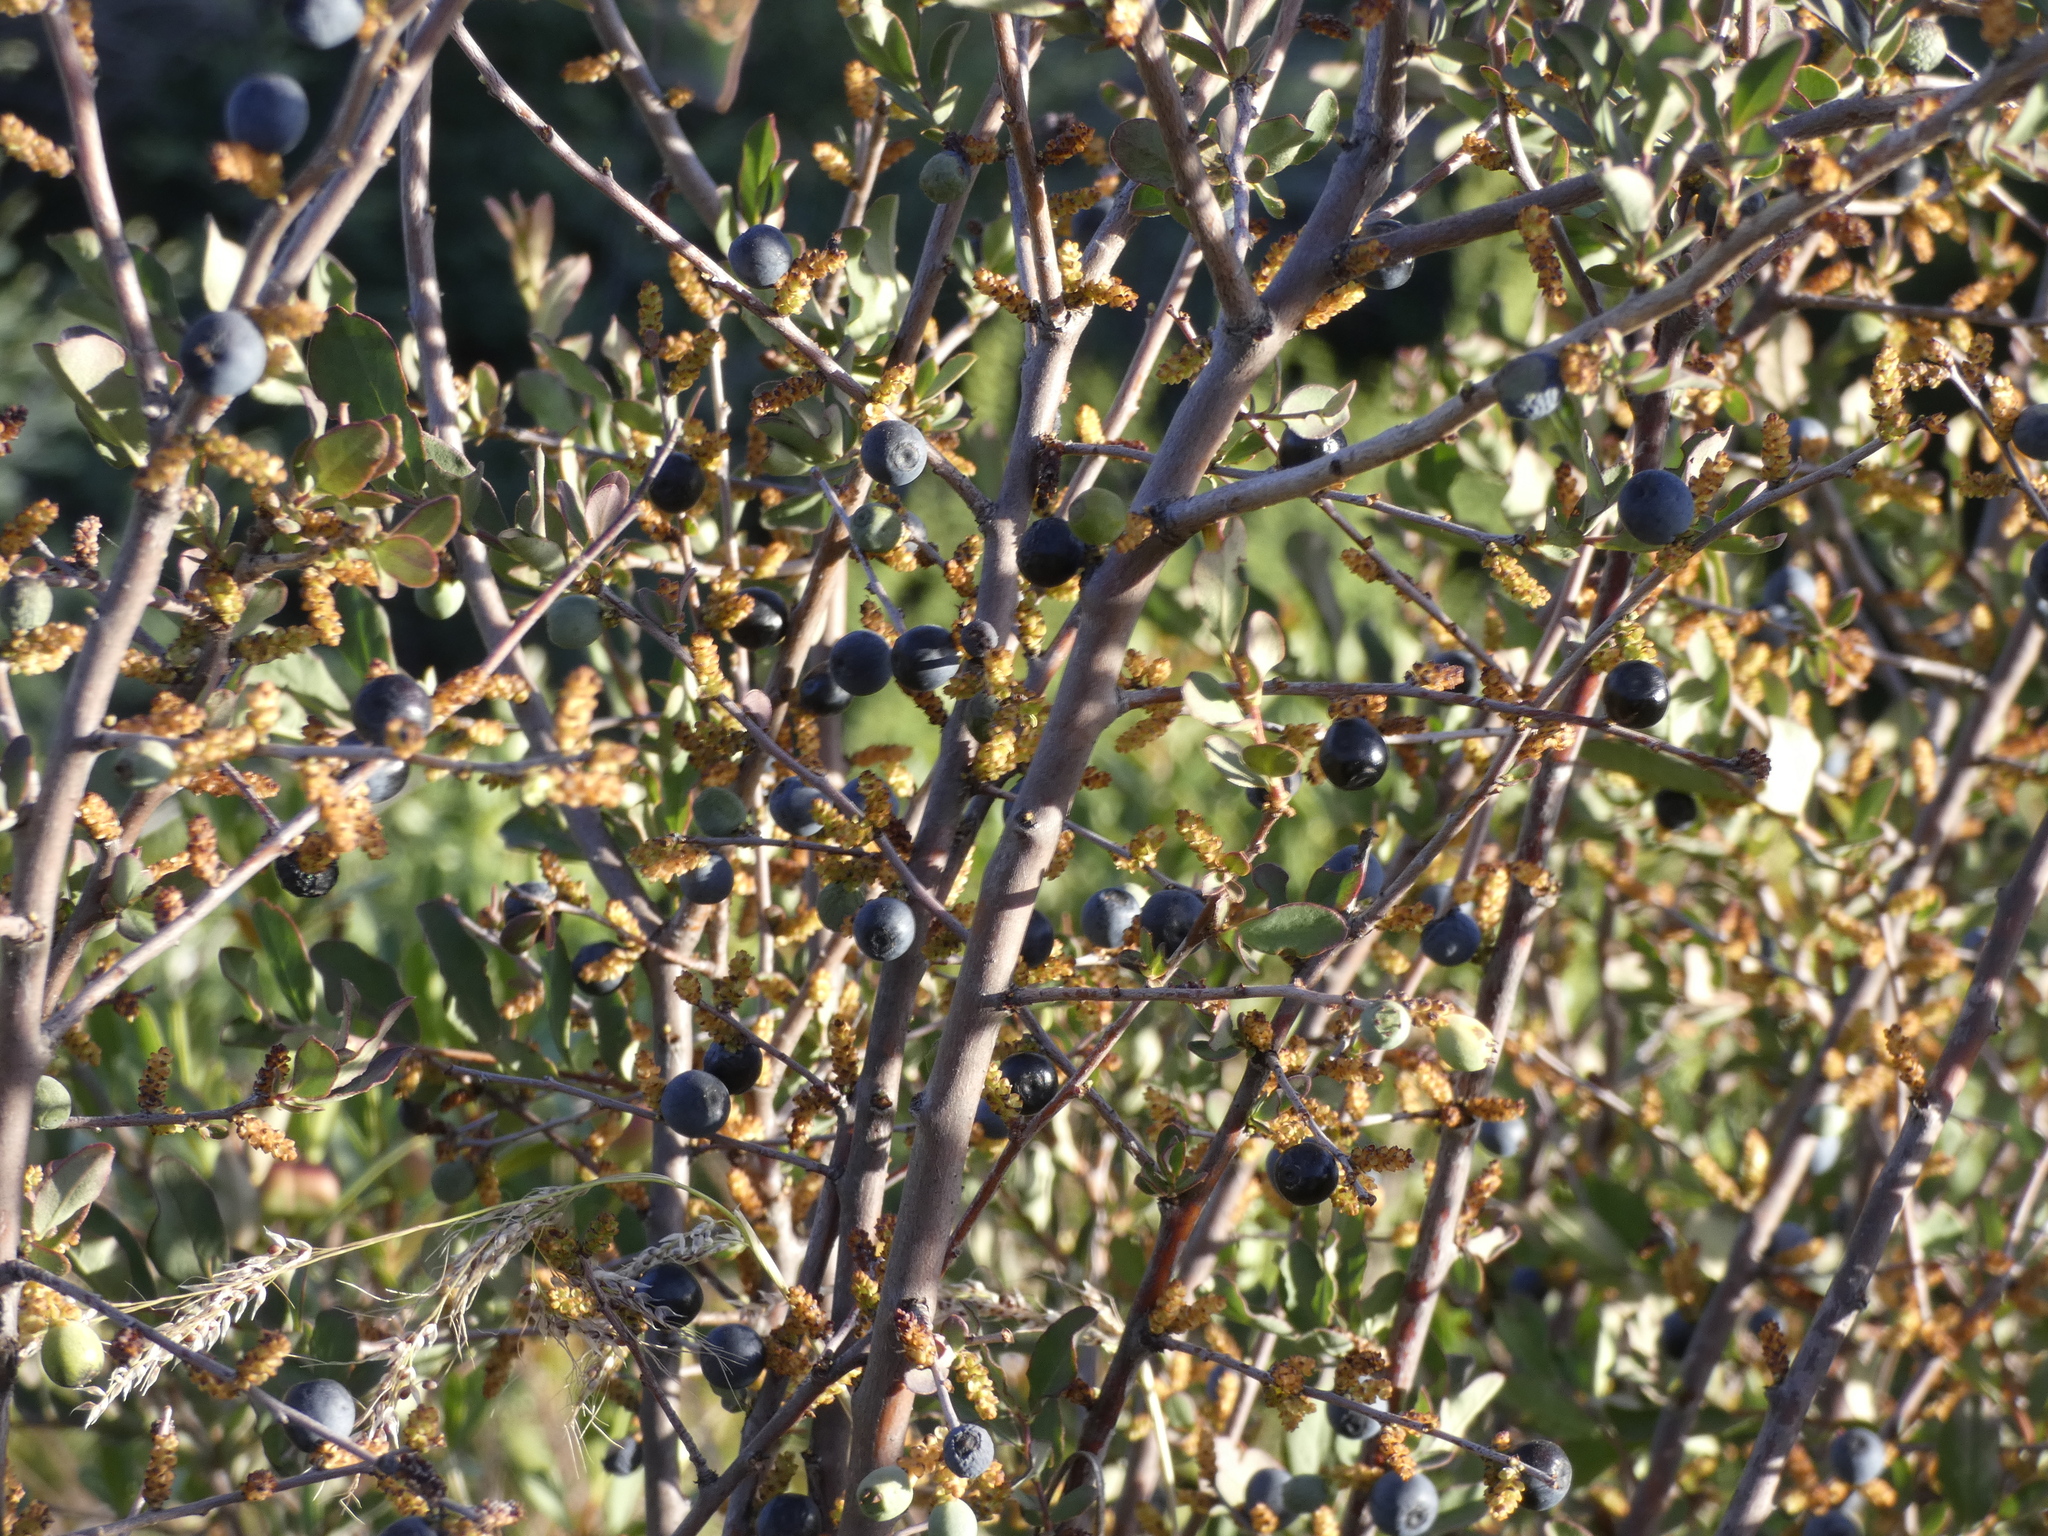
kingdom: Plantae
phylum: Tracheophyta
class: Magnoliopsida
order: Santalales
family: Santalaceae
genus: Myoschilos
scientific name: Myoschilos oblongum
